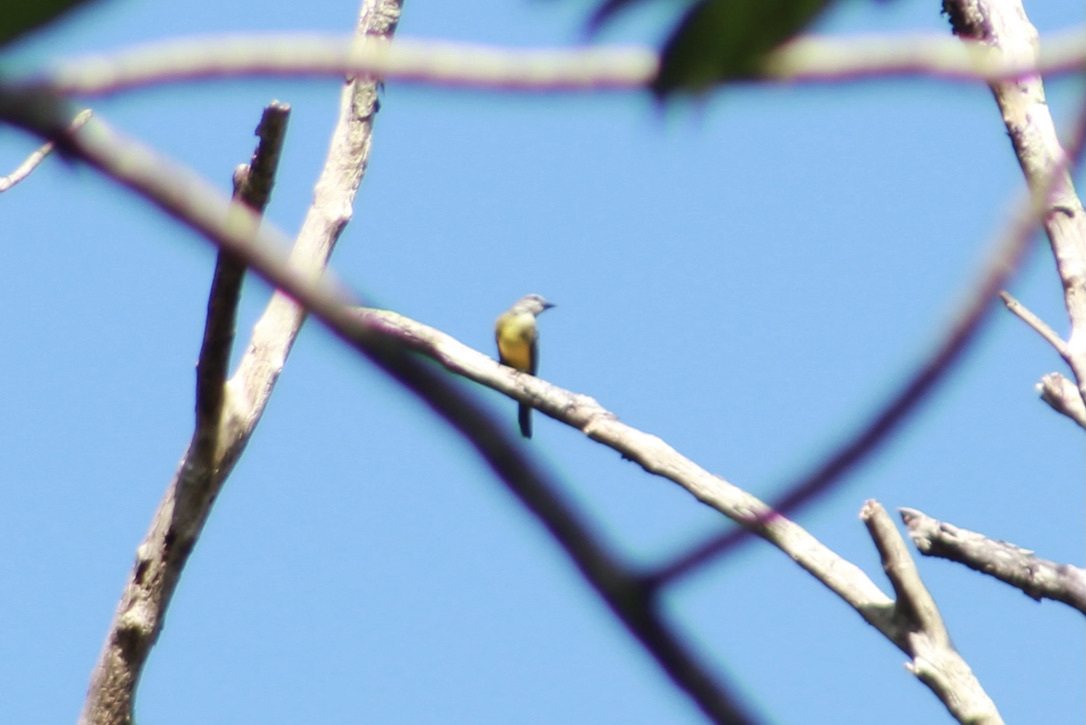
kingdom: Animalia
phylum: Chordata
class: Aves
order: Passeriformes
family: Tyrannidae
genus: Tyrannus
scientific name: Tyrannus melancholicus
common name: Tropical kingbird
